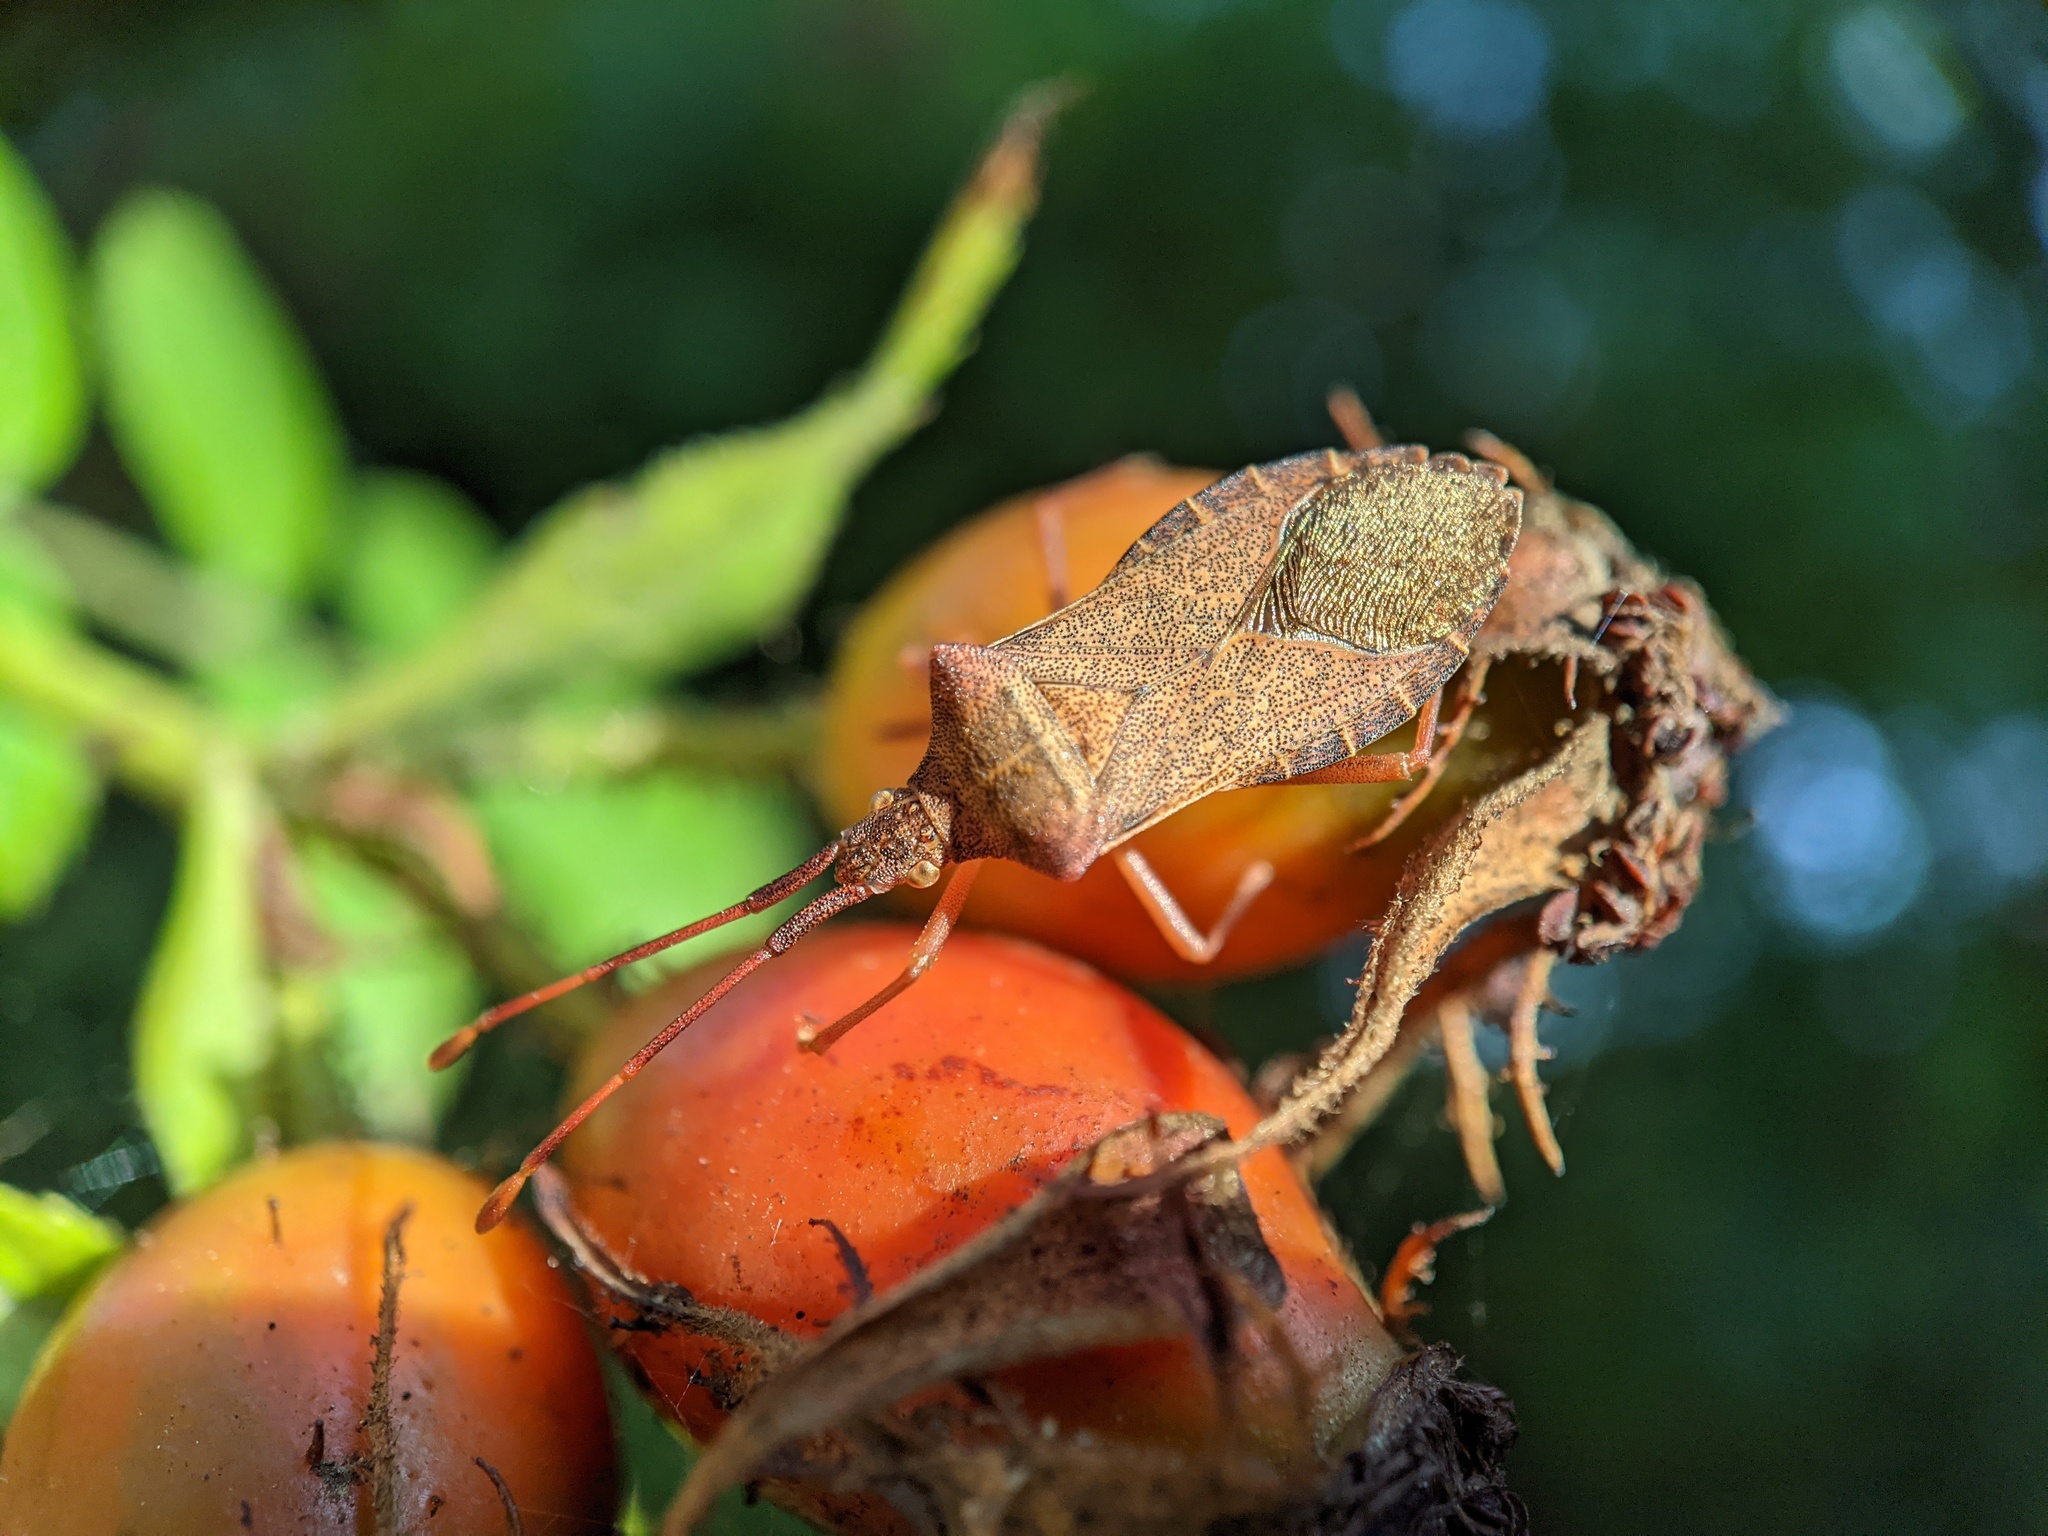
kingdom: Animalia
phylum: Arthropoda
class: Insecta
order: Hemiptera
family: Coreidae
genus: Gonocerus
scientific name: Gonocerus acuteangulatus
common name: Box bug
